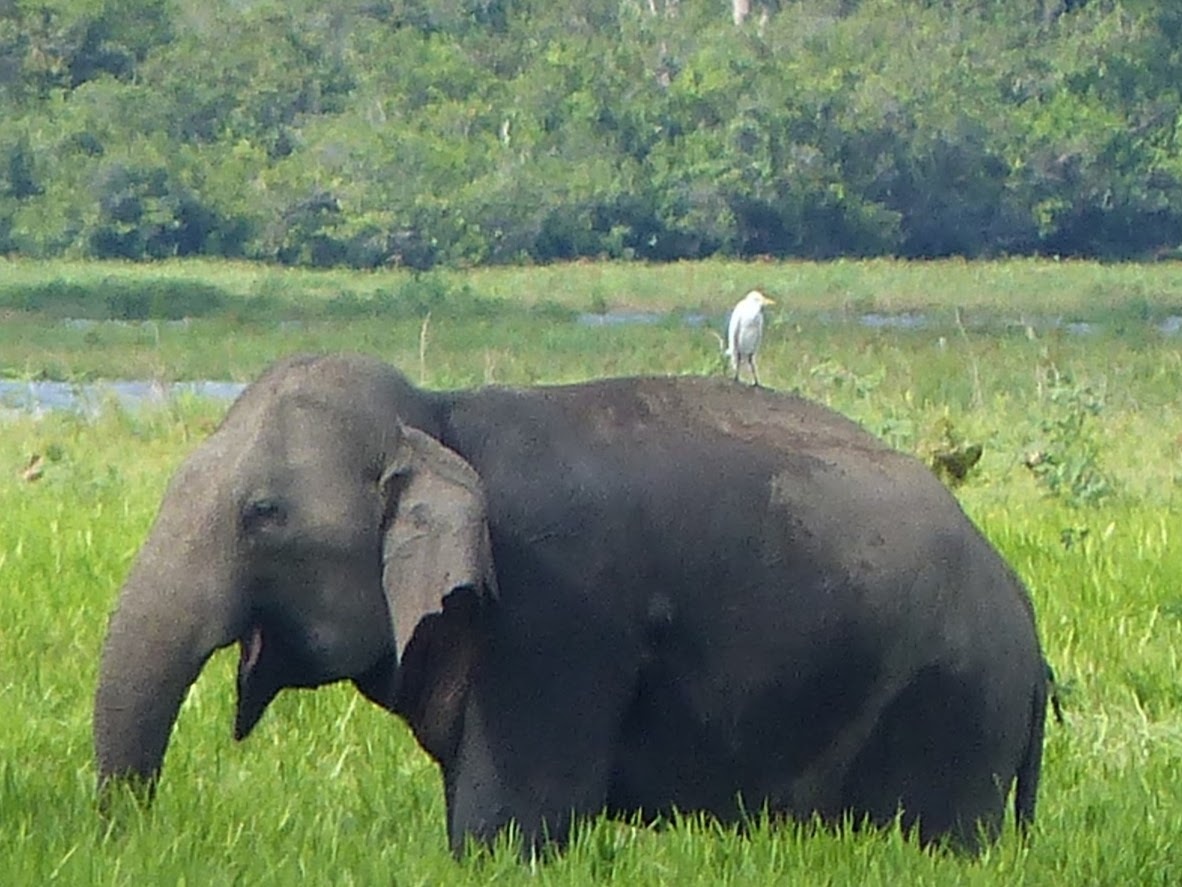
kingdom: Animalia
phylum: Chordata
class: Aves
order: Pelecaniformes
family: Ardeidae
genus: Bubulcus
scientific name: Bubulcus coromandus
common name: Eastern cattle egret
